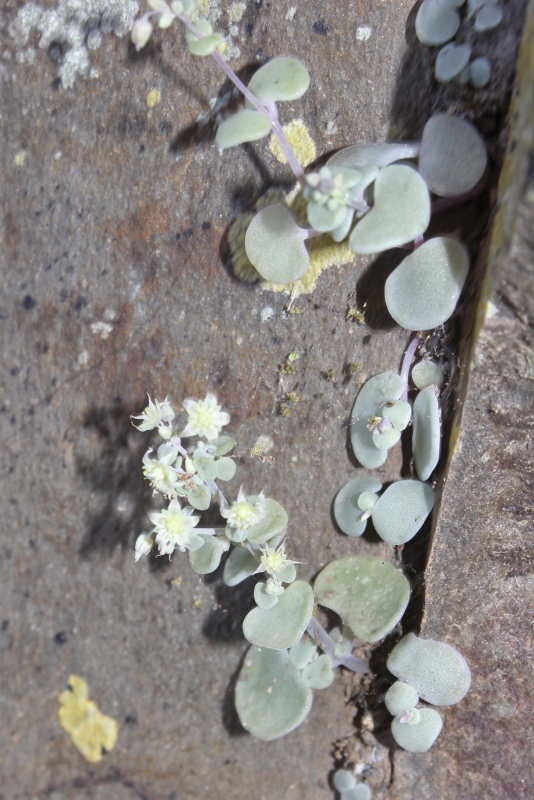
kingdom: Plantae
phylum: Tracheophyta
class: Magnoliopsida
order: Saxifragales
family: Crassulaceae
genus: Crassula
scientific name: Crassula nemorosa
